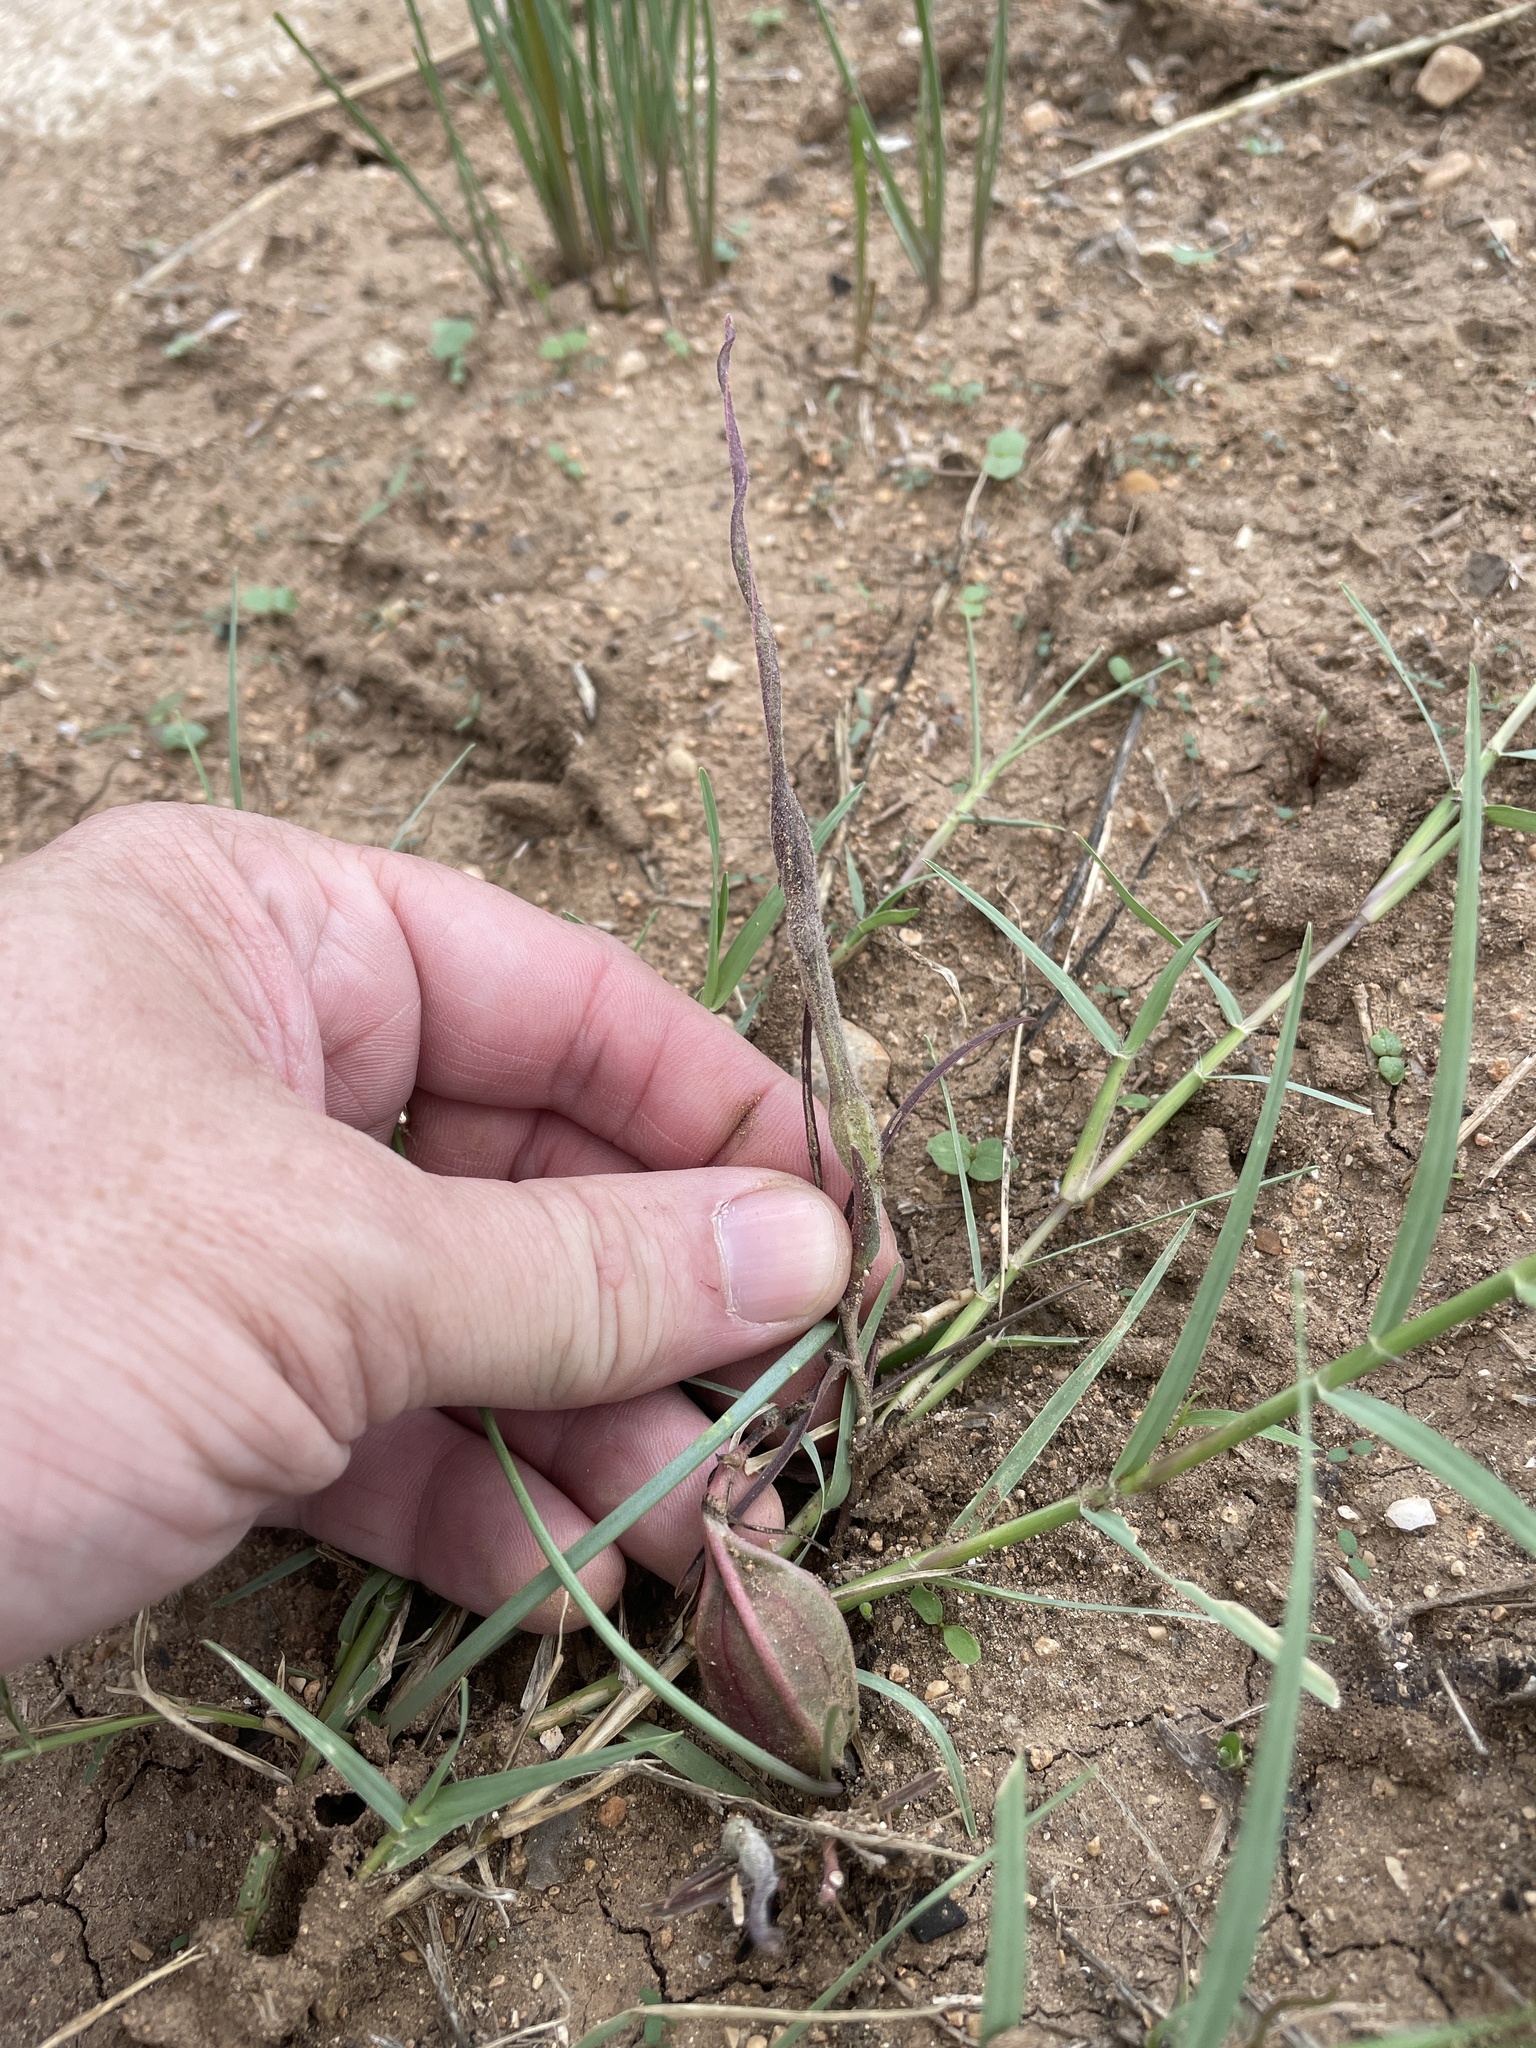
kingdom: Plantae
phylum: Tracheophyta
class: Magnoliopsida
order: Piperales
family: Aristolochiaceae
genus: Aristolochia
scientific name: Aristolochia erecta
